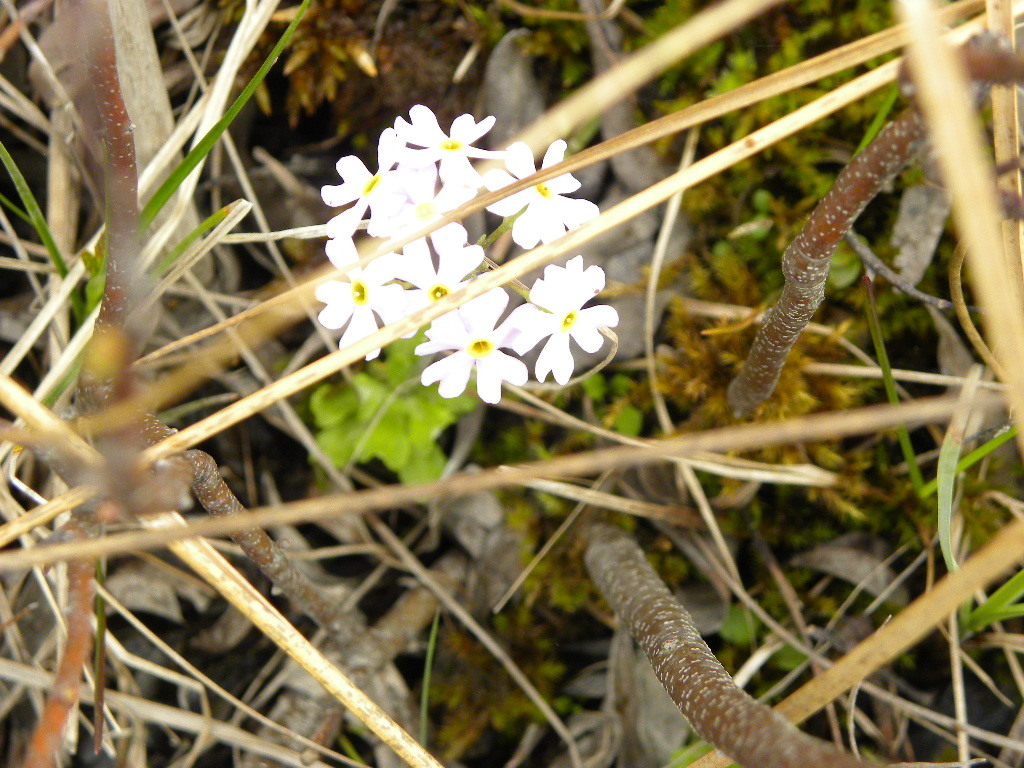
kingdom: Plantae
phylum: Tracheophyta
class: Magnoliopsida
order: Ericales
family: Primulaceae
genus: Primula
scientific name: Primula mistassinica
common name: Bird's-eye primrose
